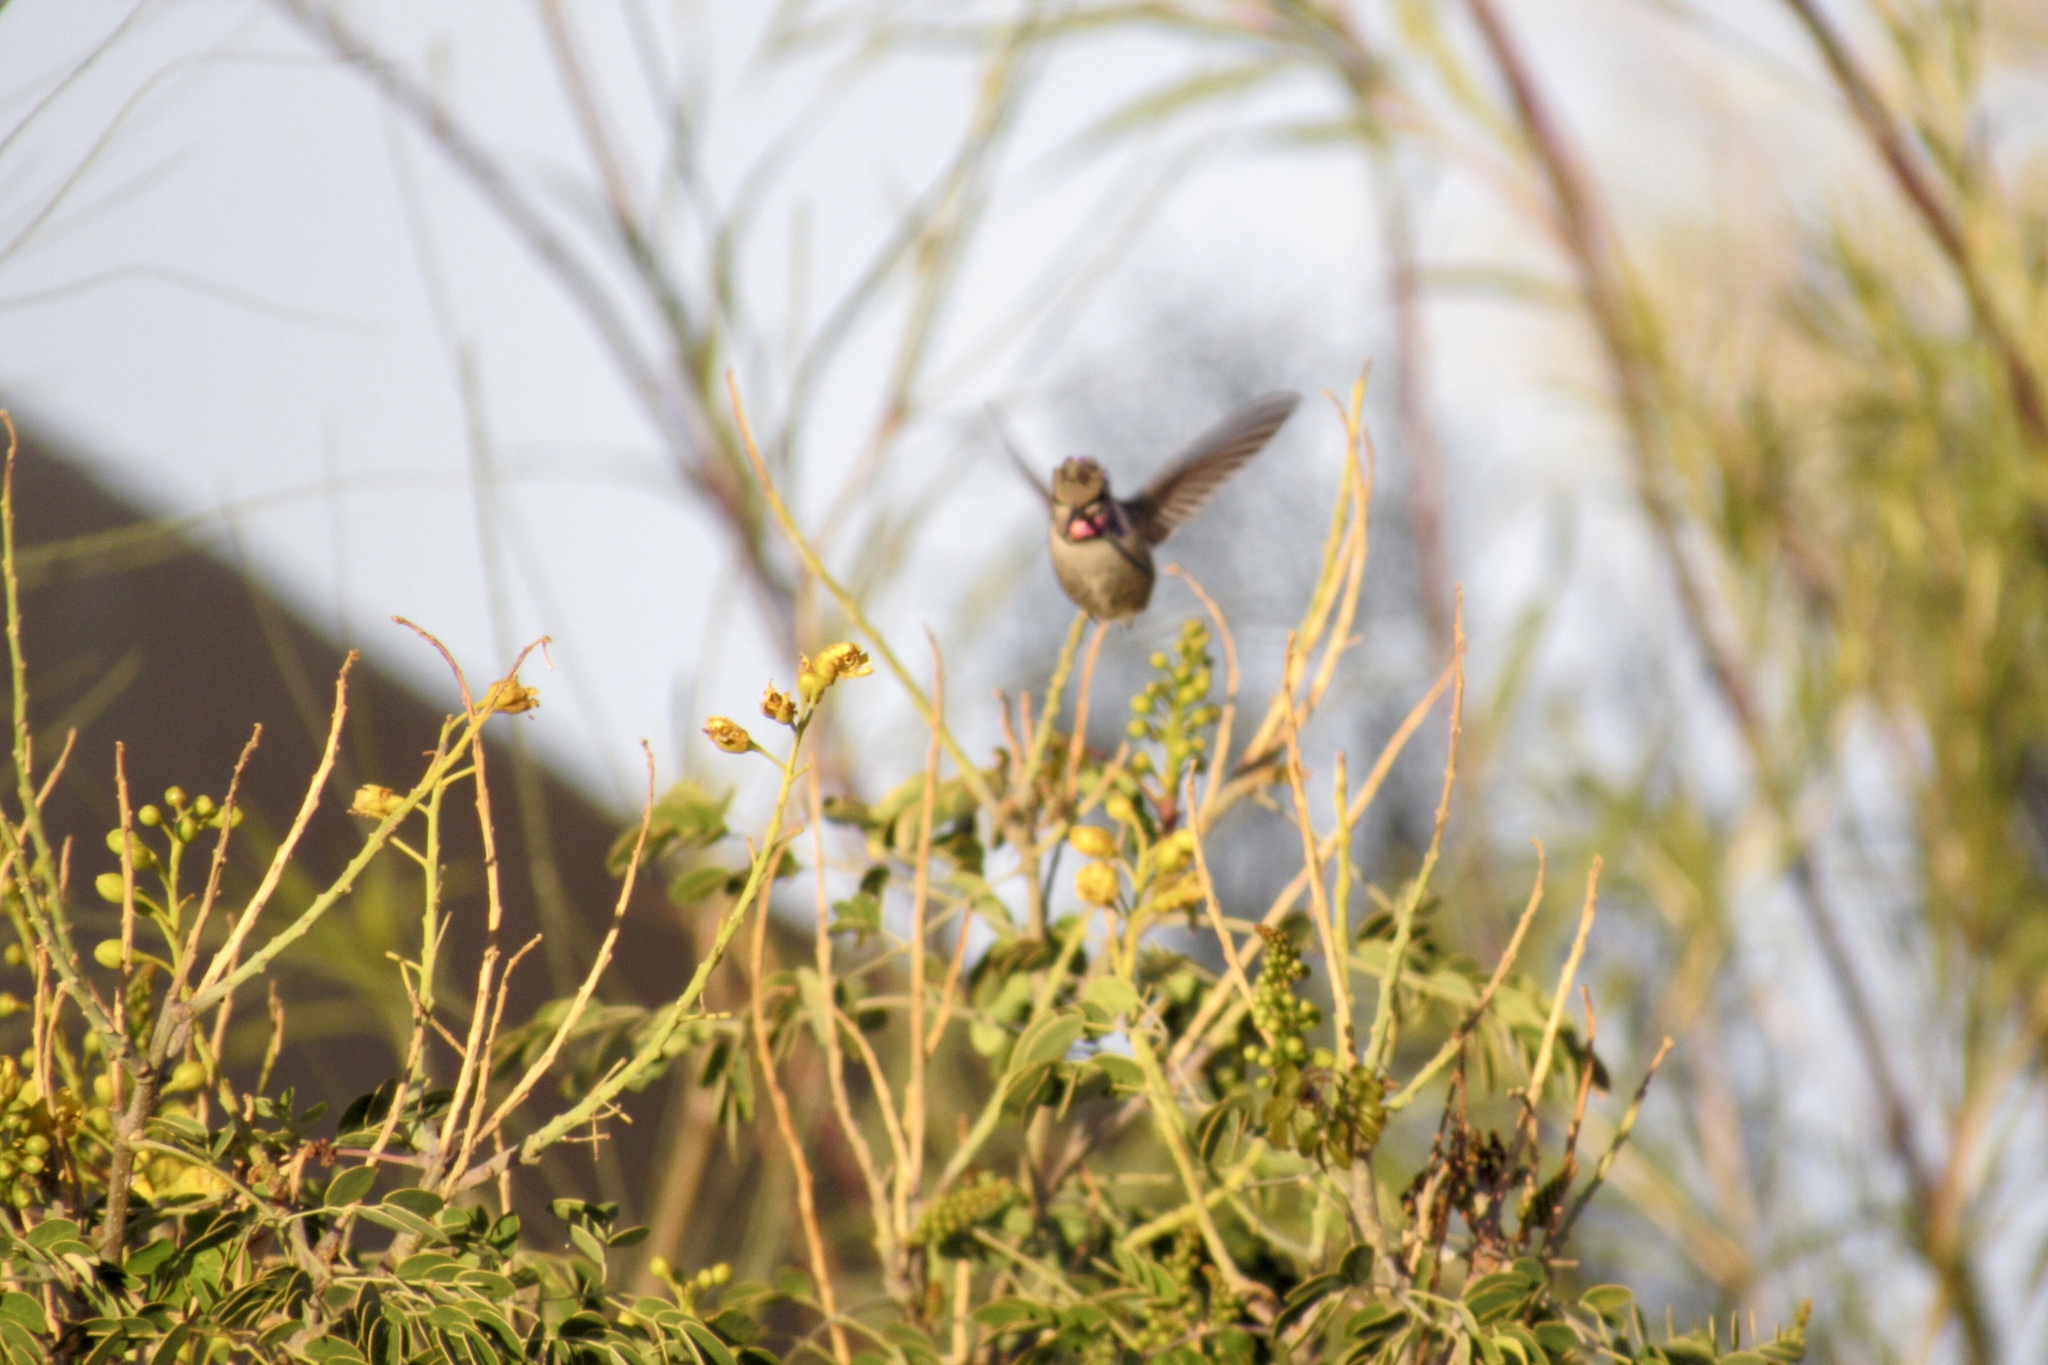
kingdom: Animalia
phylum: Chordata
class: Aves
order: Apodiformes
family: Trochilidae
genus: Calypte
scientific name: Calypte anna
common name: Anna's hummingbird
